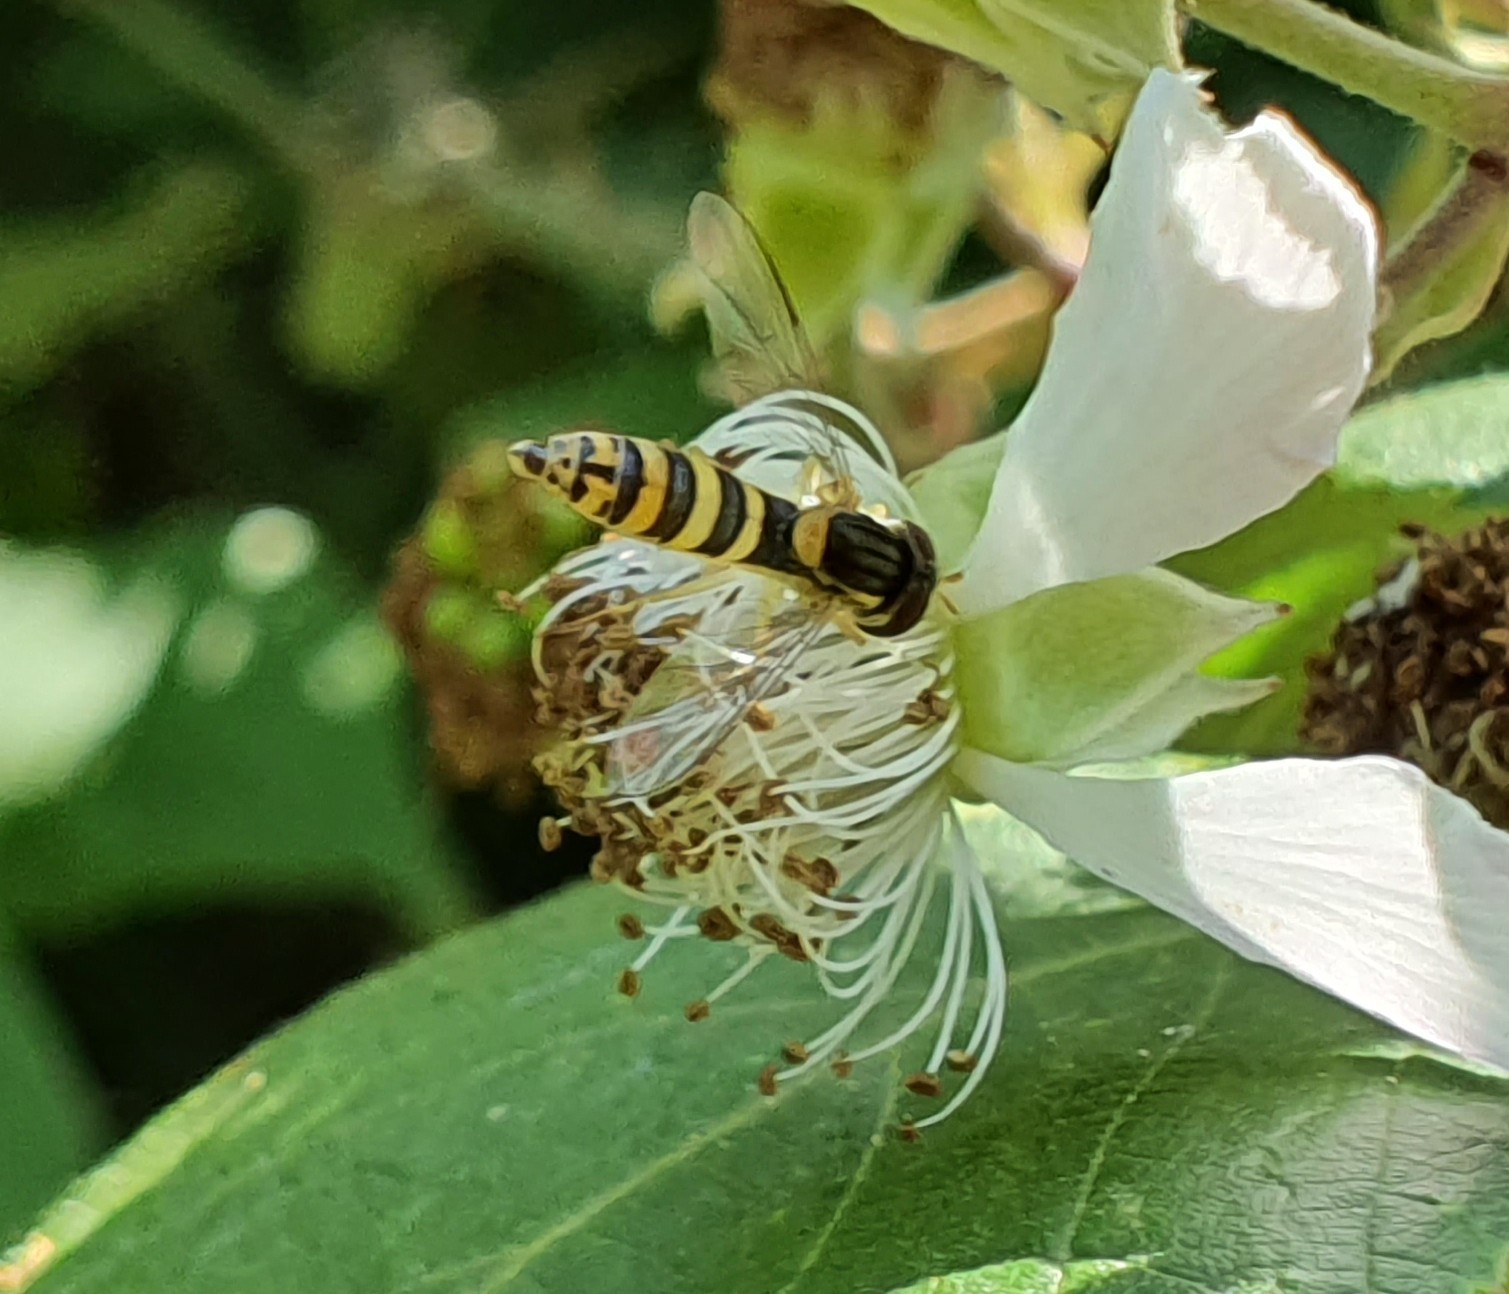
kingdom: Animalia
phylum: Arthropoda
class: Insecta
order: Diptera
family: Syrphidae
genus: Sphaerophoria
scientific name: Sphaerophoria
